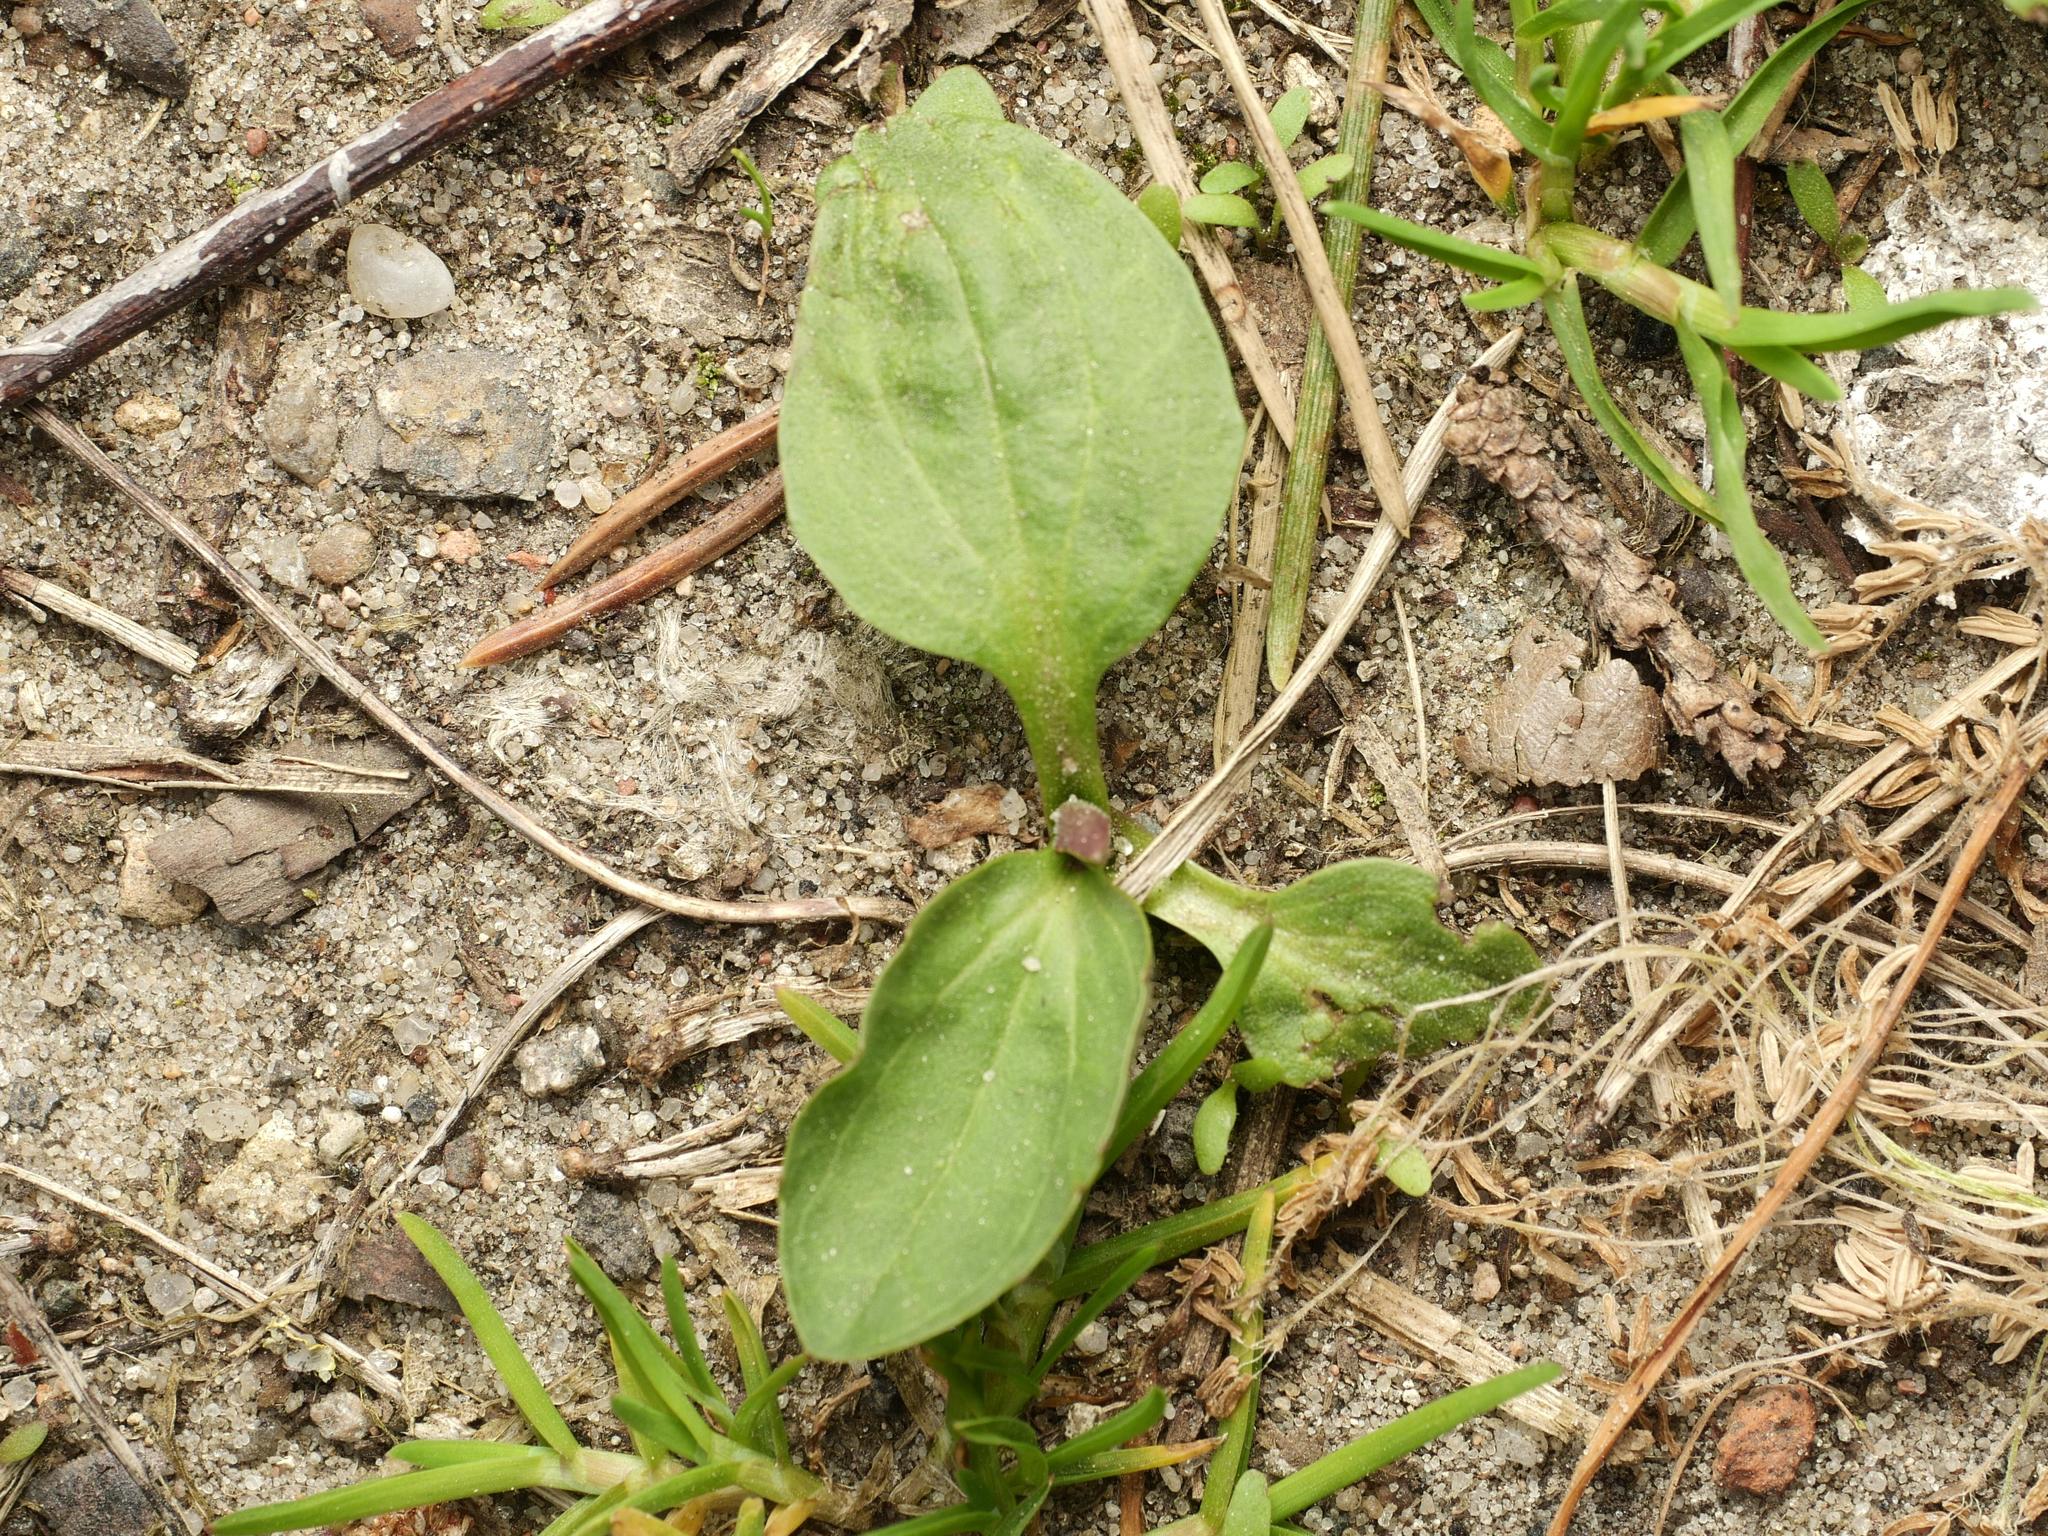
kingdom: Plantae
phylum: Tracheophyta
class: Magnoliopsida
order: Lamiales
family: Plantaginaceae
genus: Plantago
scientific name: Plantago major
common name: Common plantain
